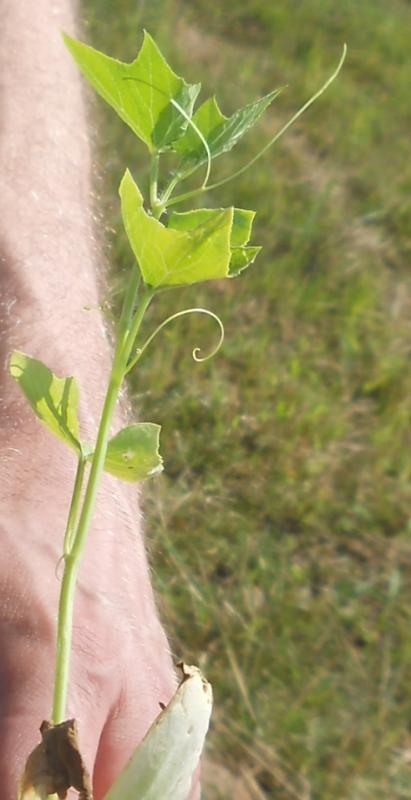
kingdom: Plantae
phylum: Tracheophyta
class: Magnoliopsida
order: Cucurbitales
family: Cucurbitaceae
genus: Echinocystis
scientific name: Echinocystis lobata
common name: Wild cucumber
